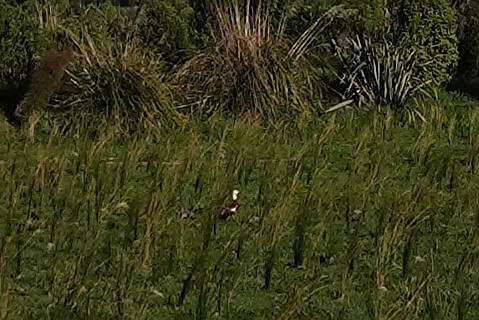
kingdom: Animalia
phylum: Chordata
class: Aves
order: Anseriformes
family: Anatidae
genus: Tadorna
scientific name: Tadorna variegata
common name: Paradise shelduck
